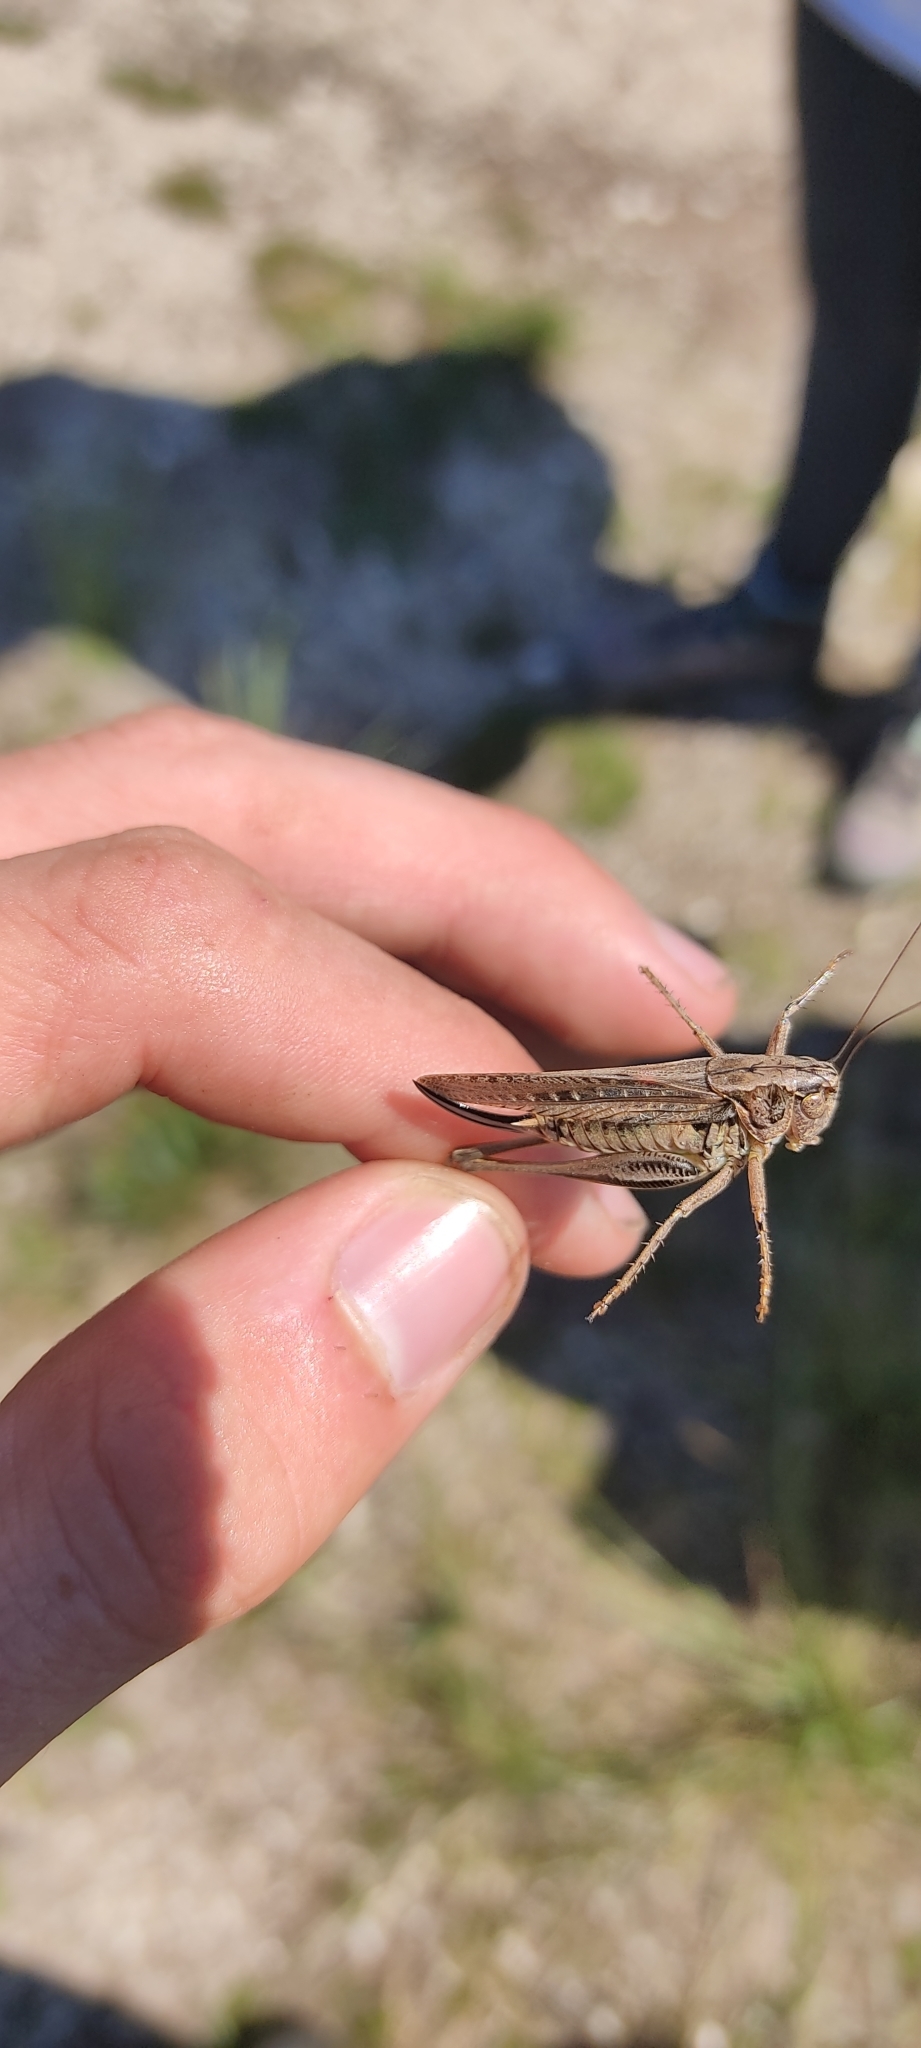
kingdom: Animalia
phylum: Arthropoda
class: Insecta
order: Orthoptera
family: Tettigoniidae
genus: Platycleis
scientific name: Platycleis albopunctata
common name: Grey bush-cricket
